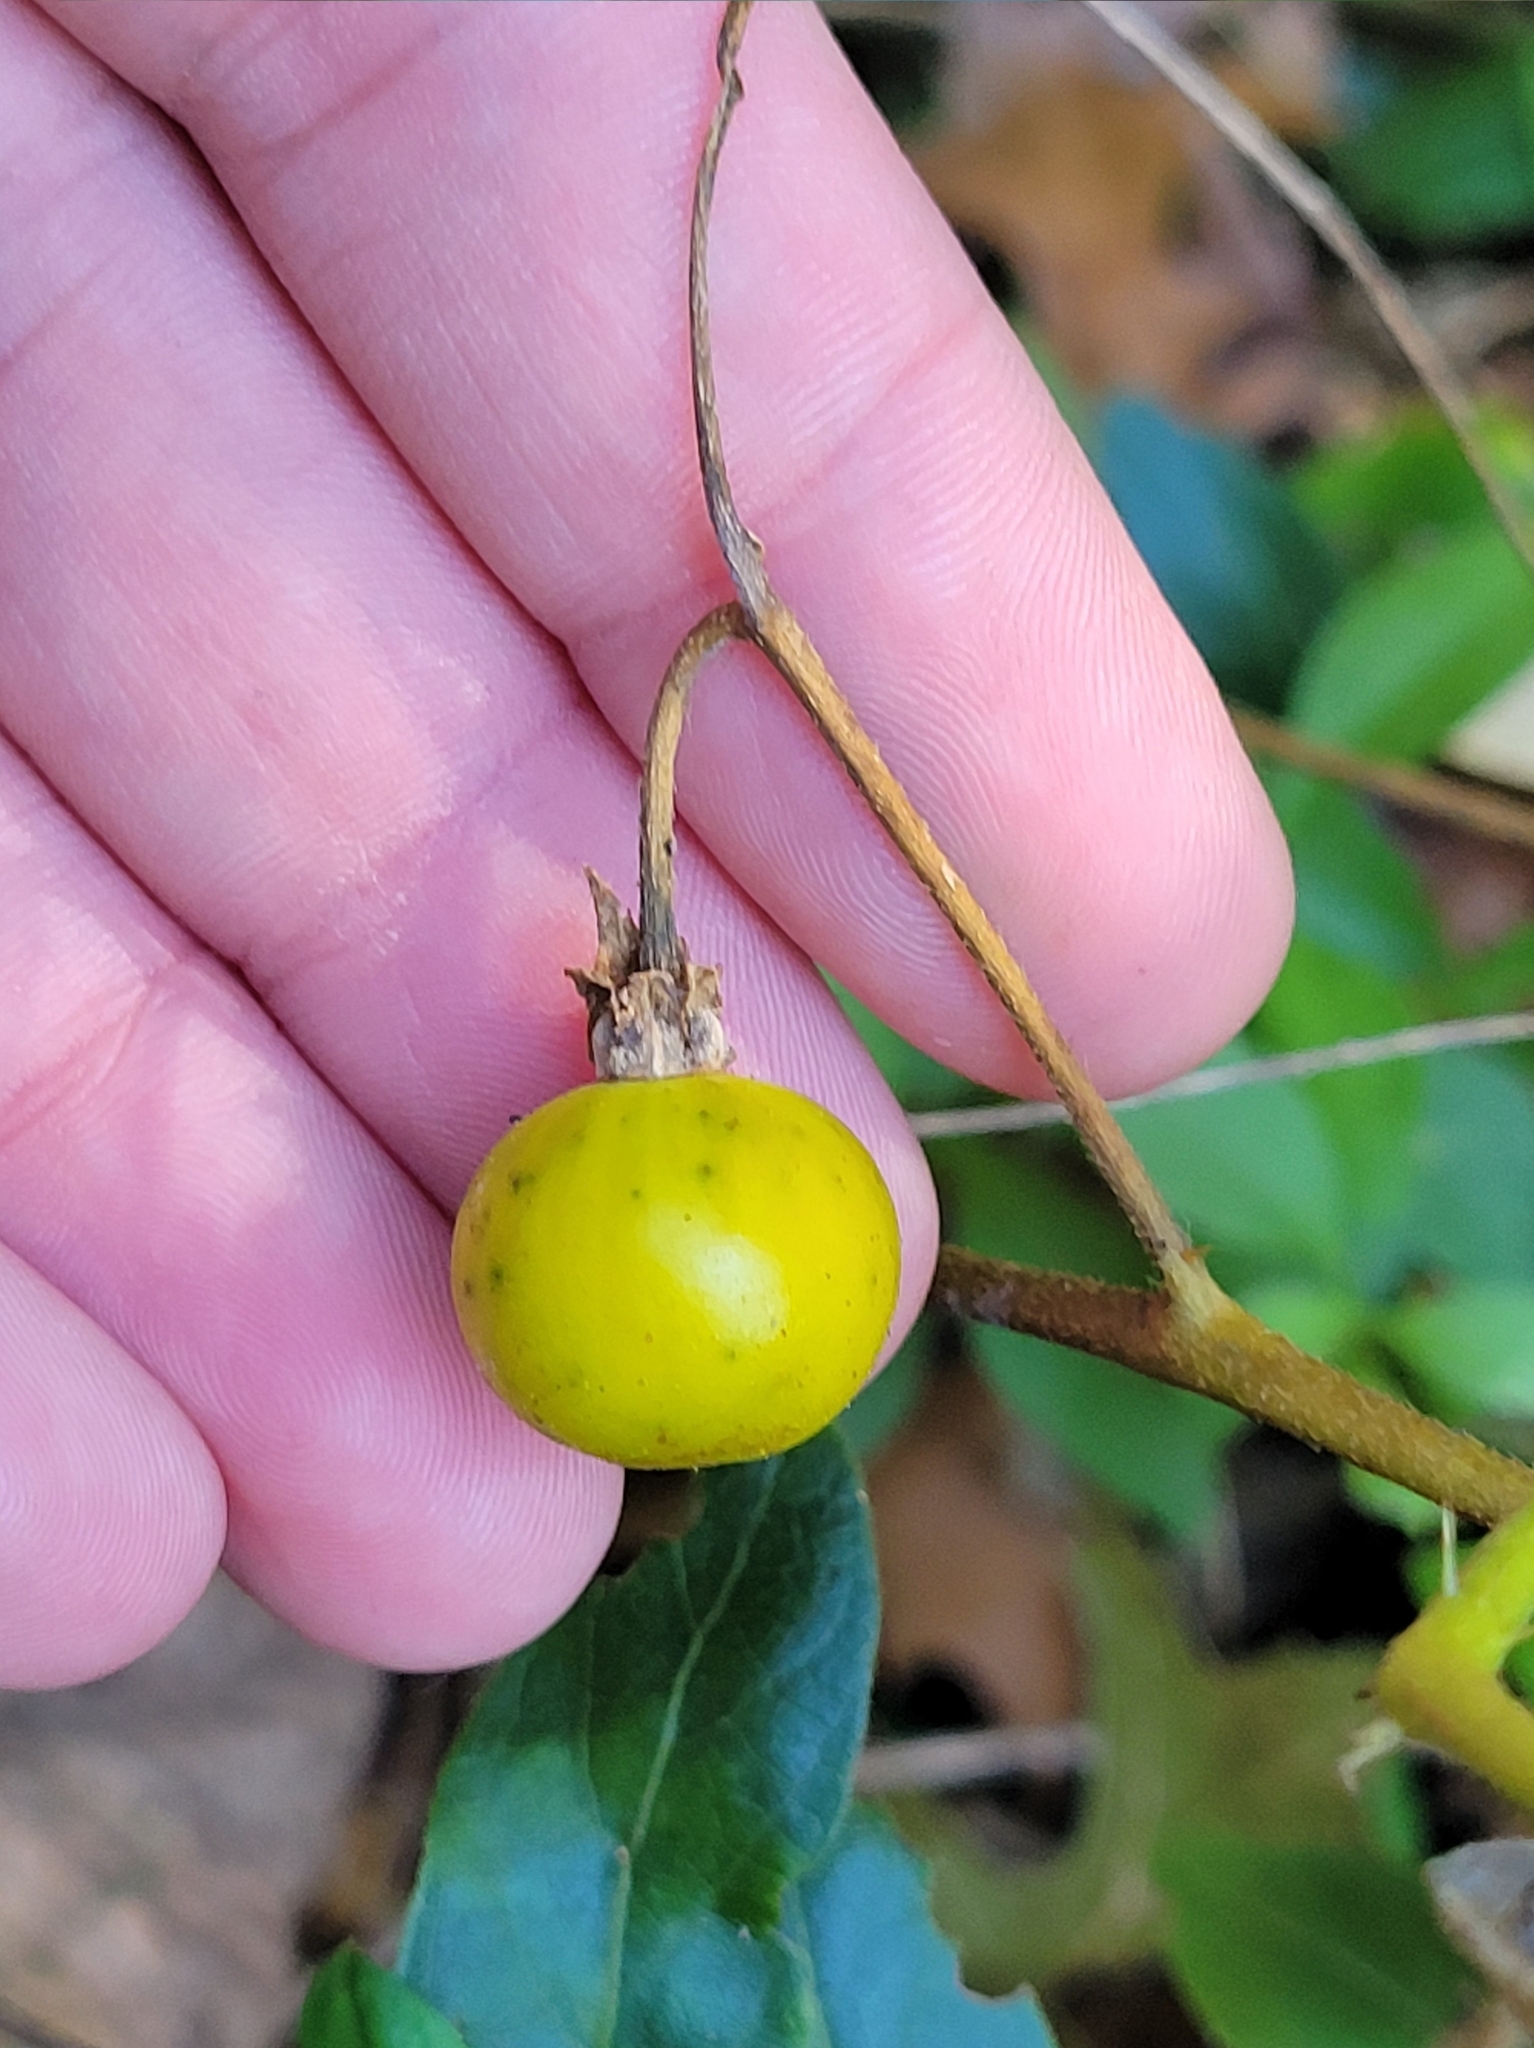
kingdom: Plantae
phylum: Tracheophyta
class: Magnoliopsida
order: Solanales
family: Solanaceae
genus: Solanum
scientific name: Solanum carolinense
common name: Horse-nettle
